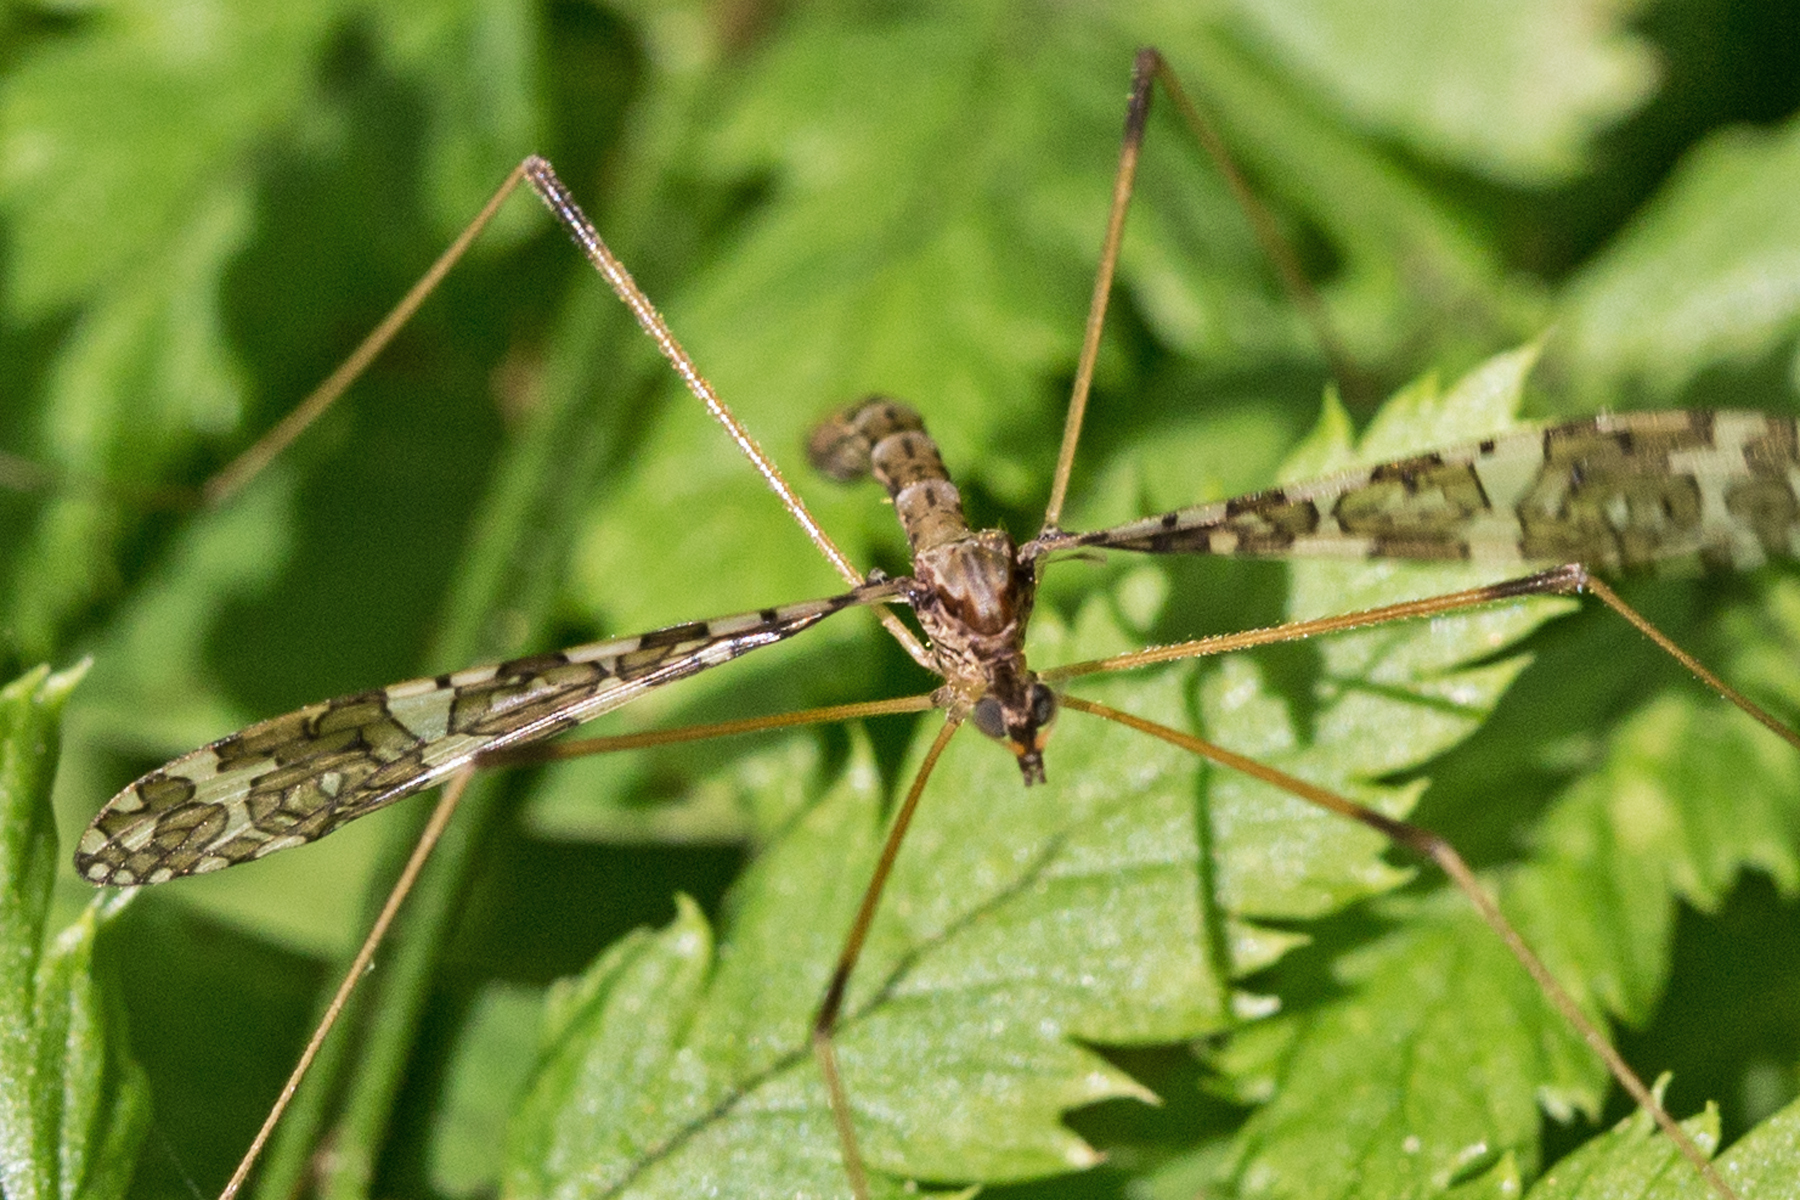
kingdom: Animalia
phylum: Arthropoda
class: Insecta
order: Diptera
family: Limoniidae
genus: Epiphragma
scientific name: Epiphragma fasciapenne
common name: Band-winged crane fly
